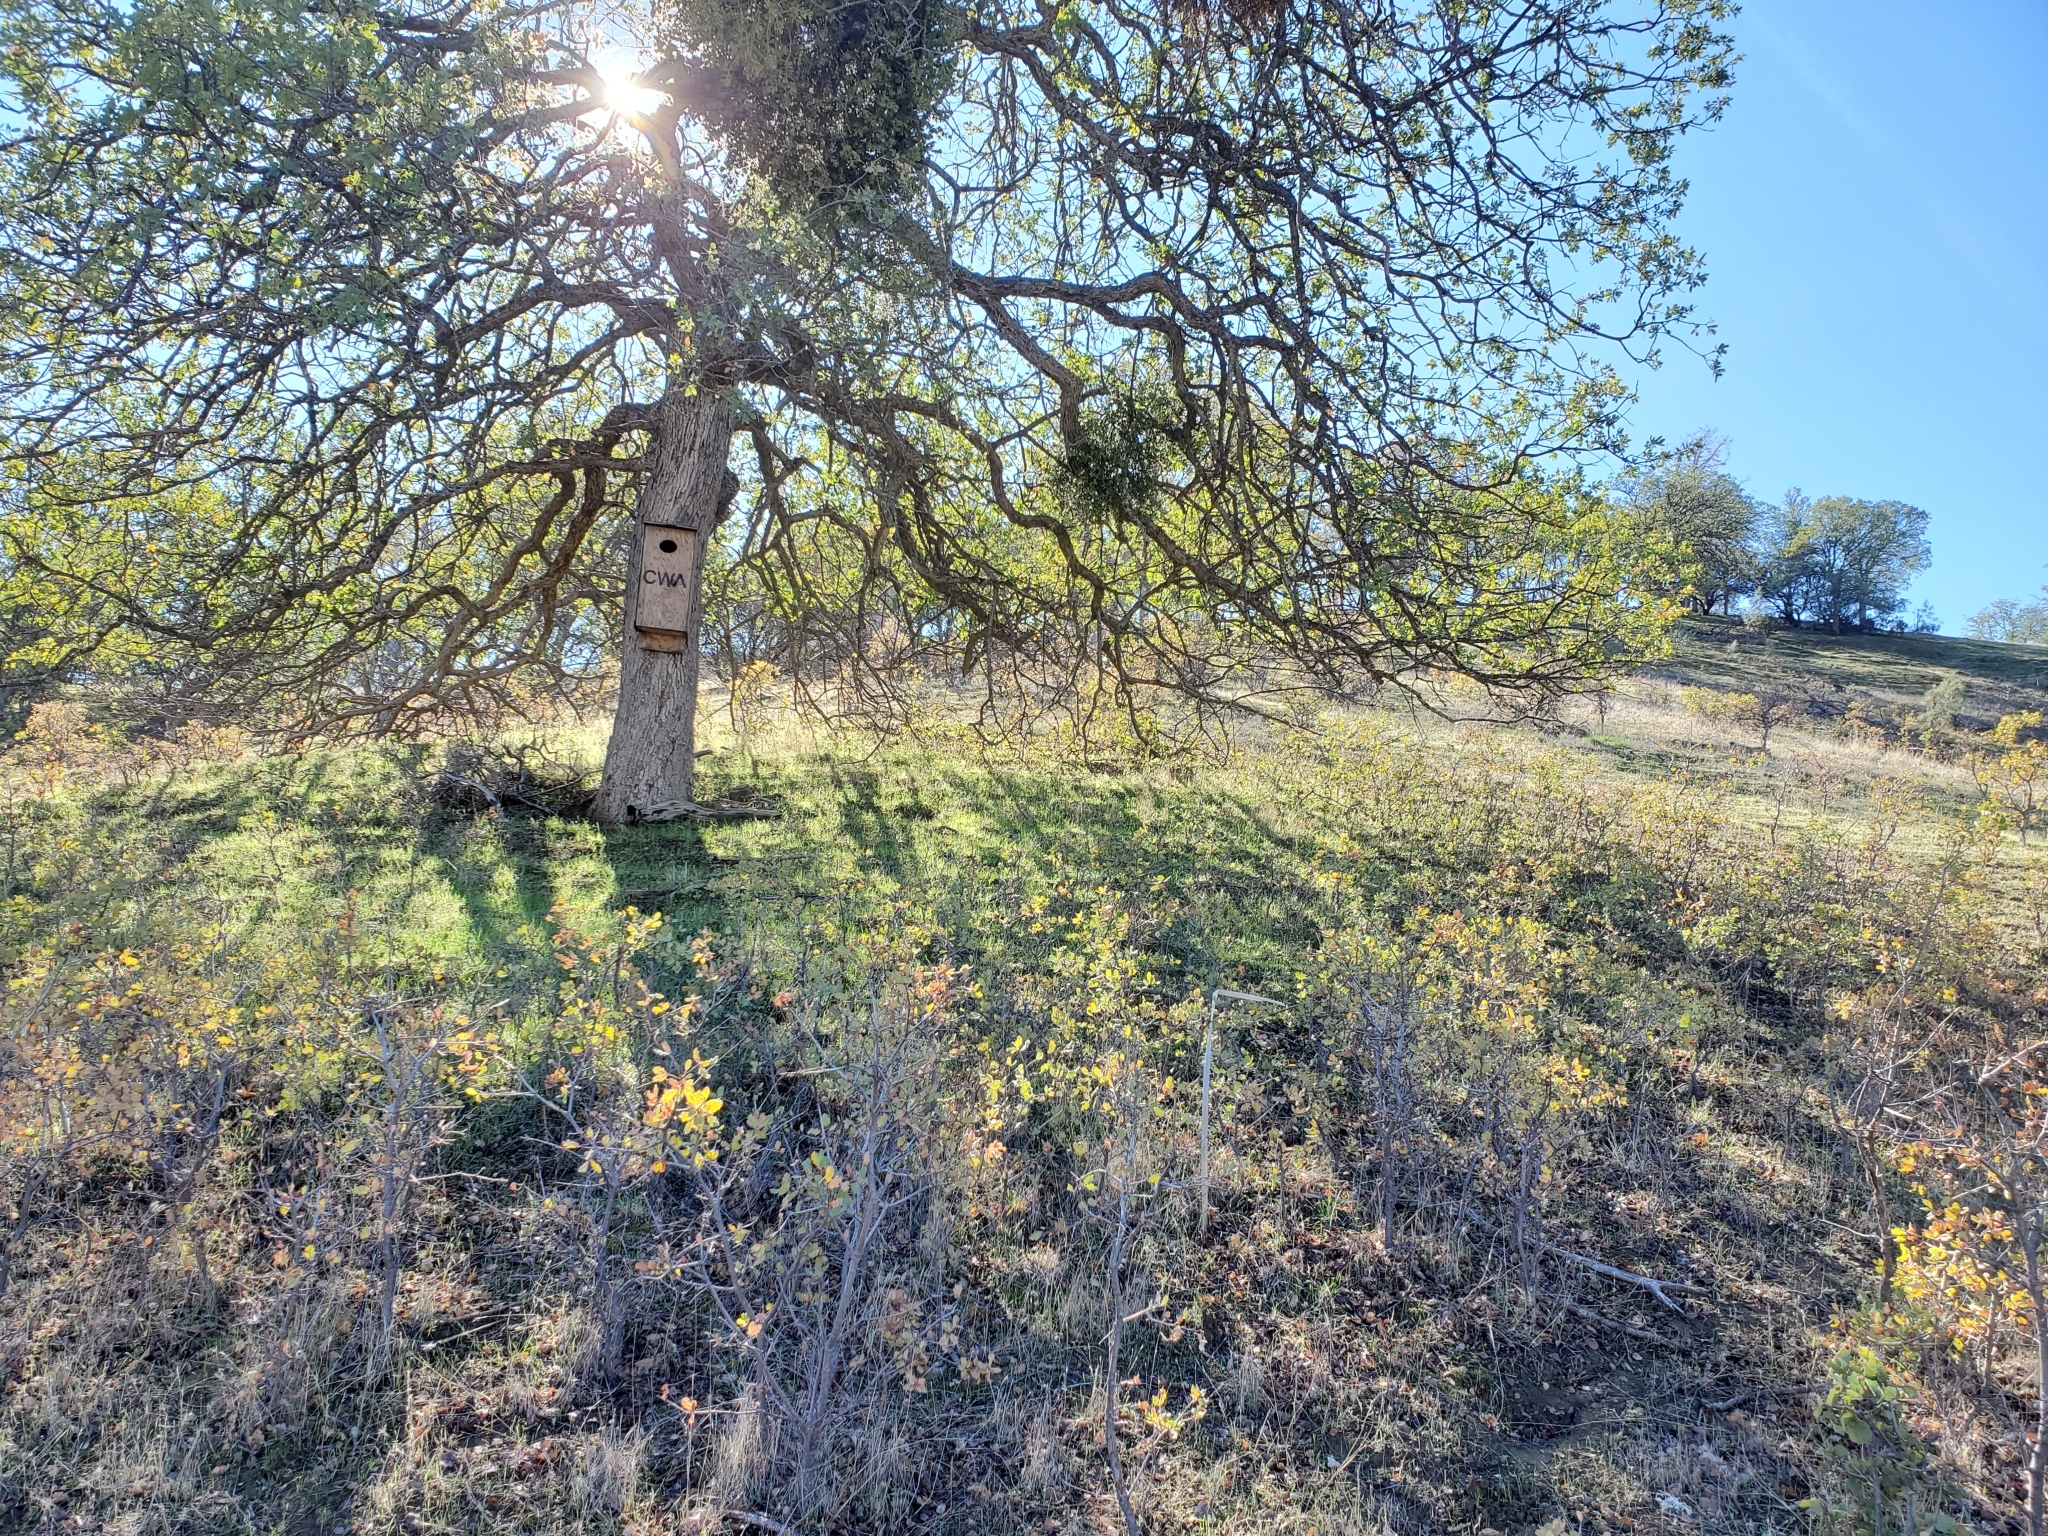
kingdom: Plantae
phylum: Tracheophyta
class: Magnoliopsida
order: Fagales
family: Fagaceae
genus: Quercus
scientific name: Quercus douglasii
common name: Blue oak
